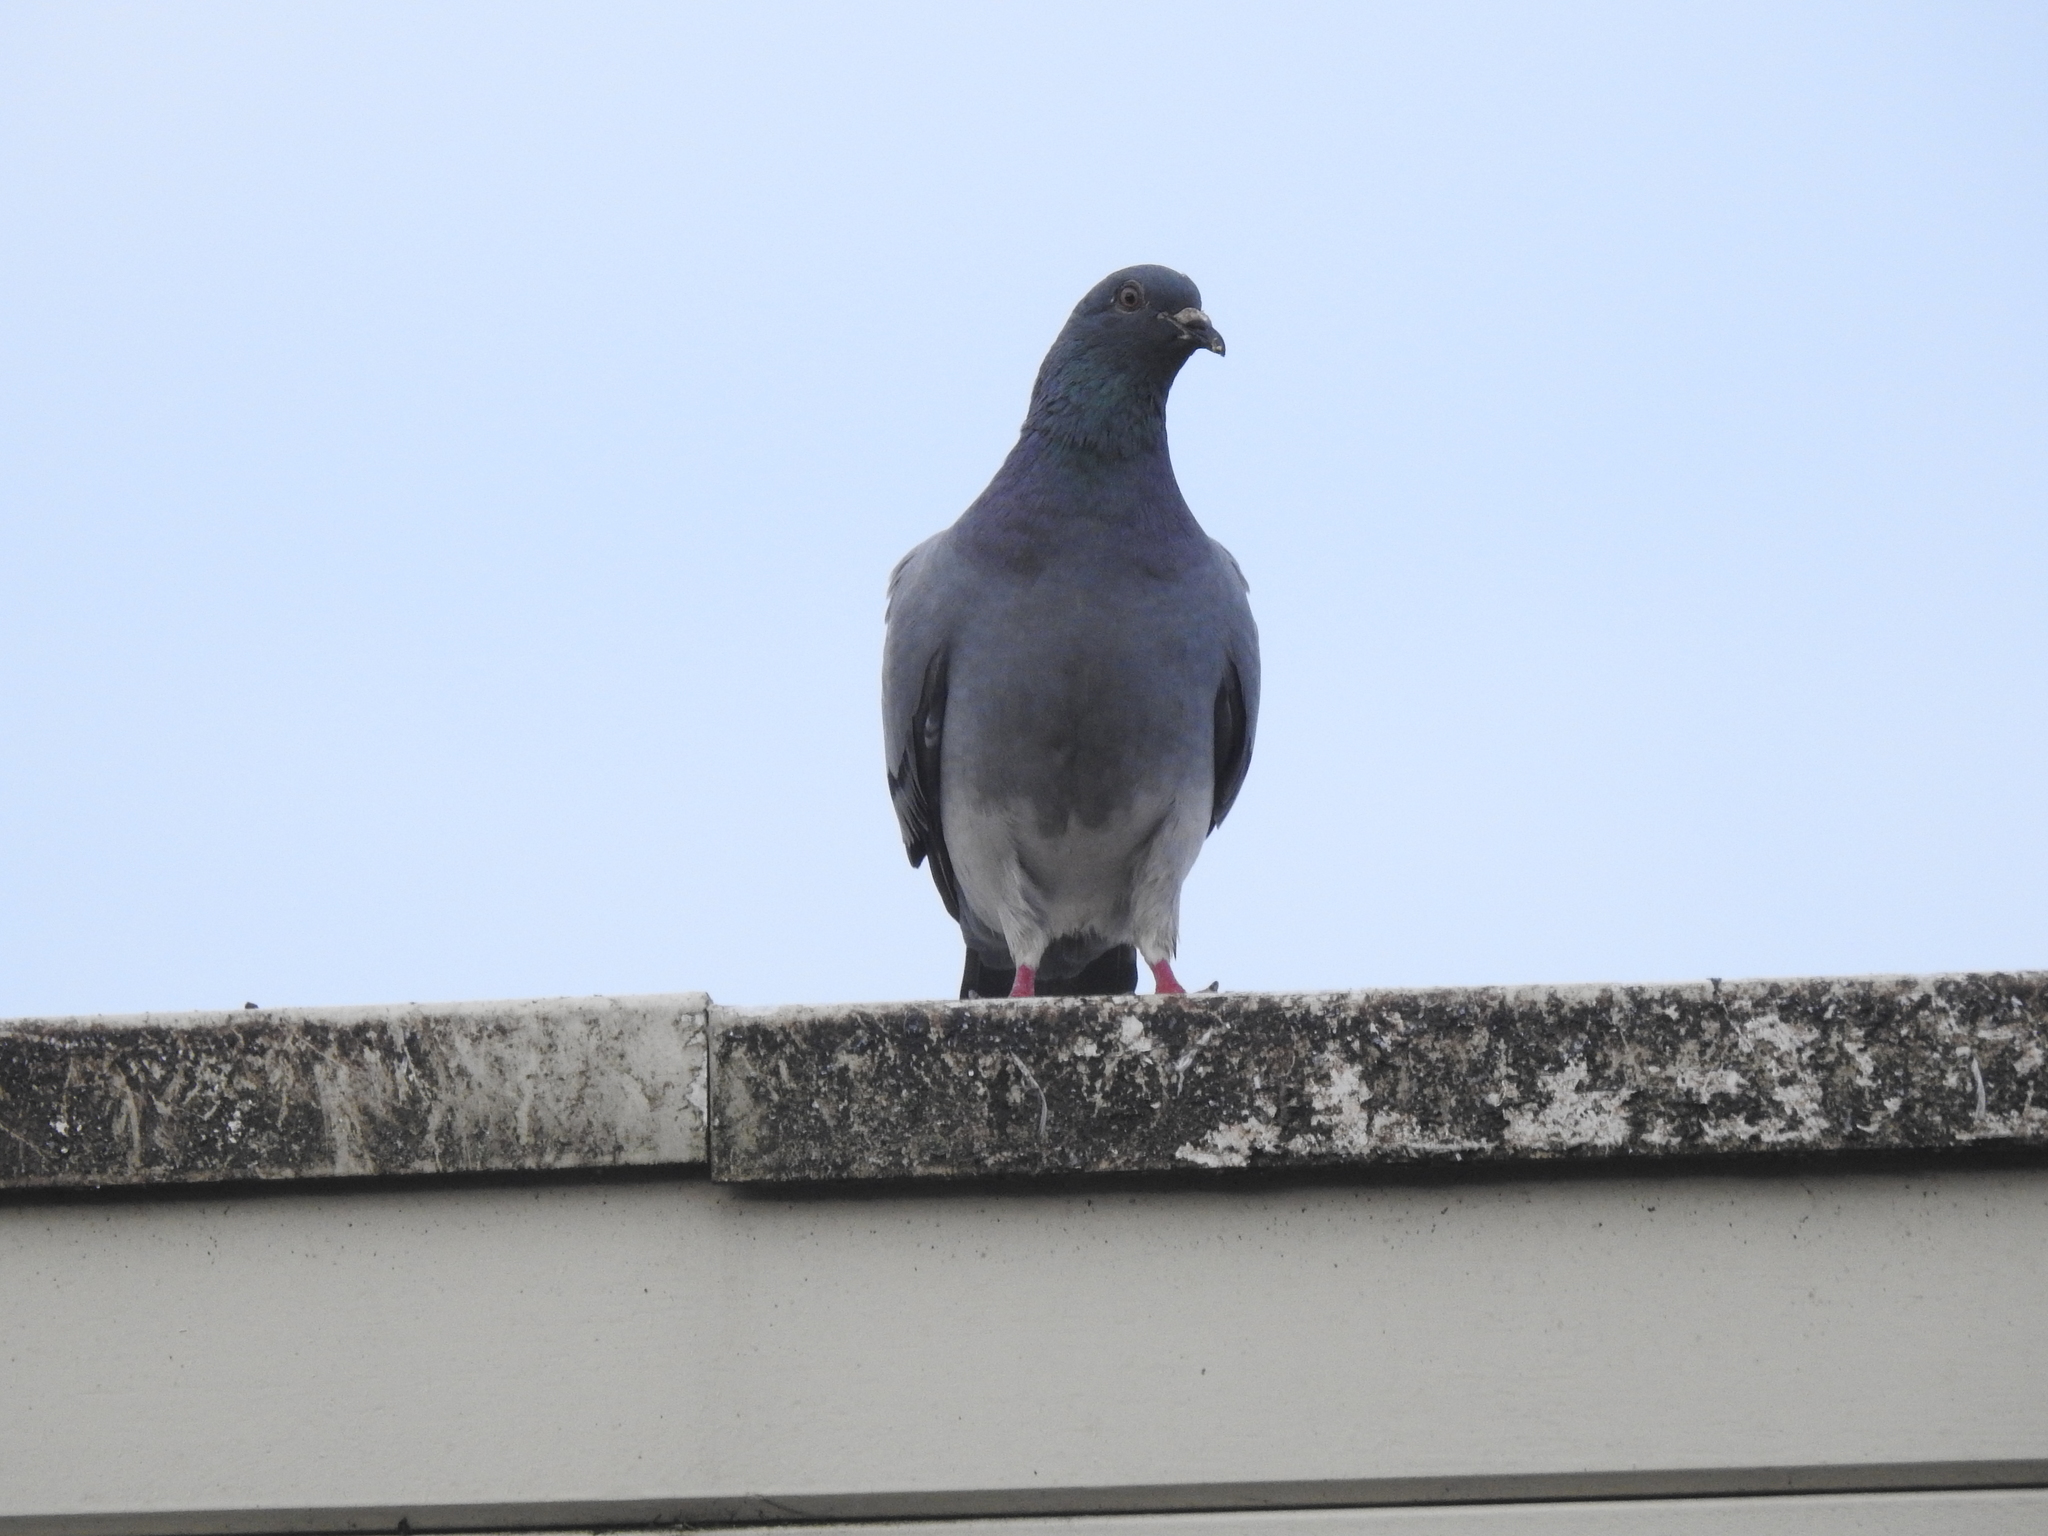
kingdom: Animalia
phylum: Chordata
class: Aves
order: Columbiformes
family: Columbidae
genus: Columba
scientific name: Columba livia
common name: Rock pigeon
